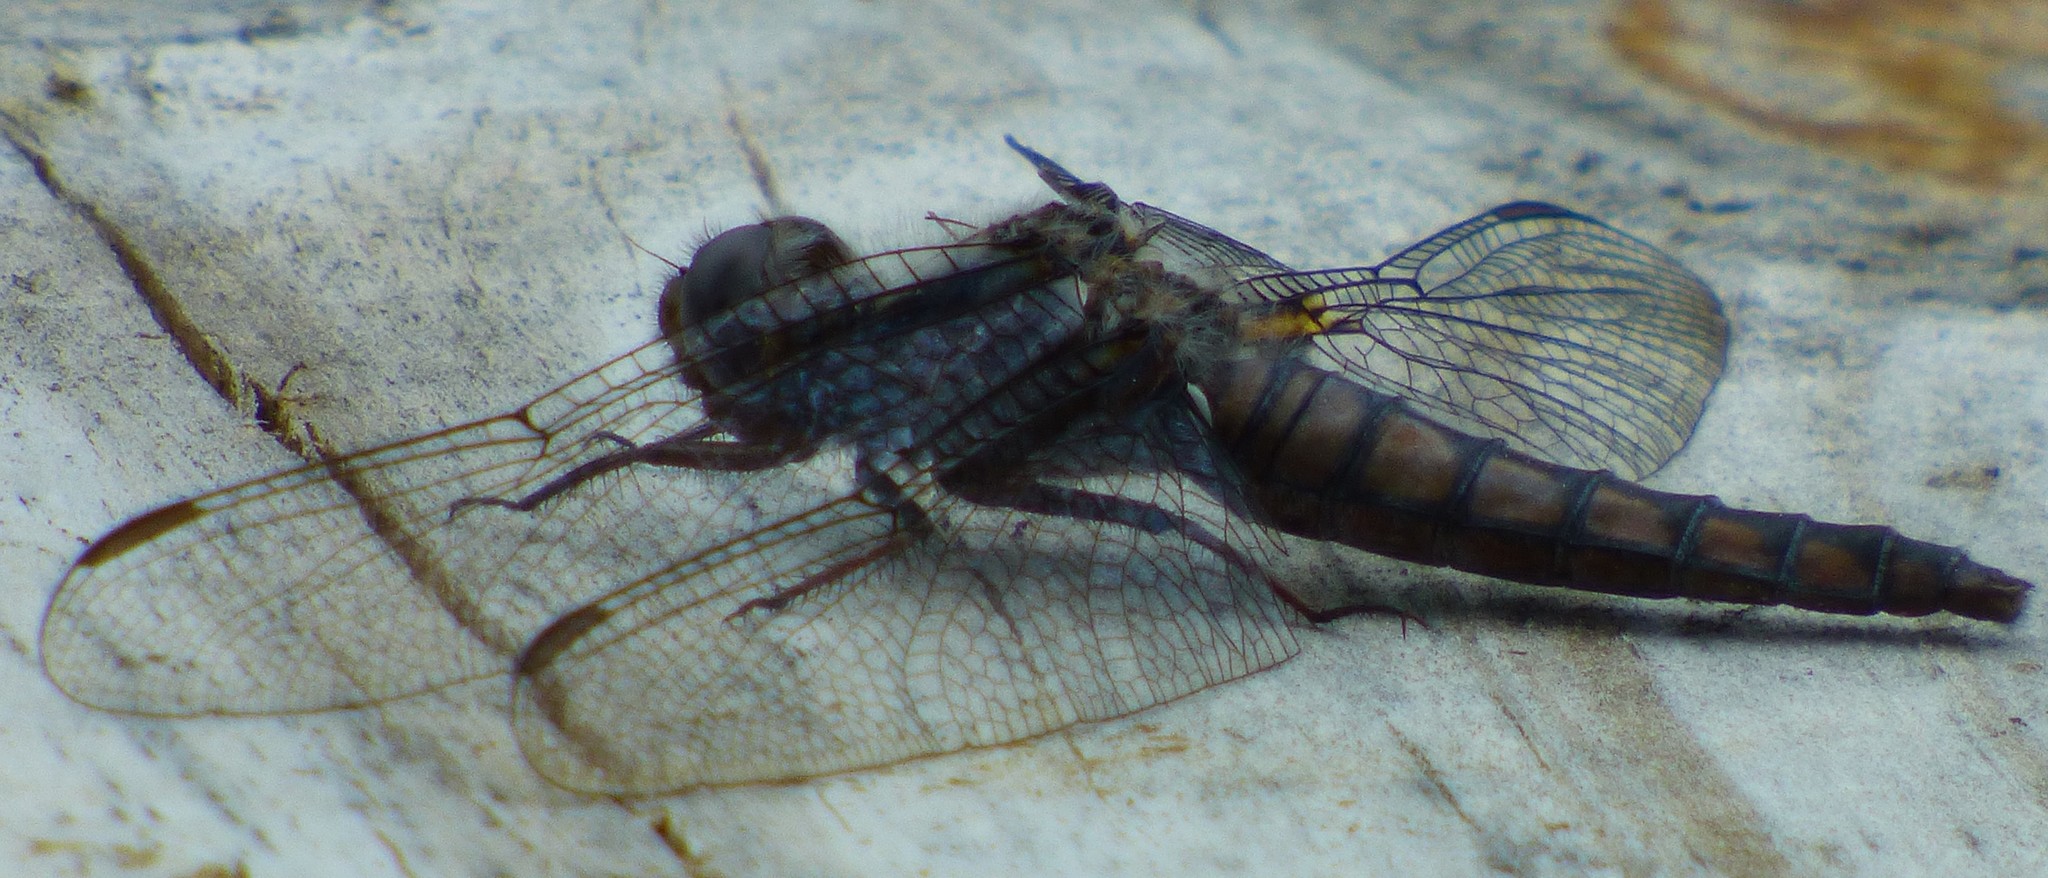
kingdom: Animalia
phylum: Arthropoda
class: Insecta
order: Odonata
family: Libellulidae
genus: Ladona
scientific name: Ladona deplanata
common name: Blue corporal
